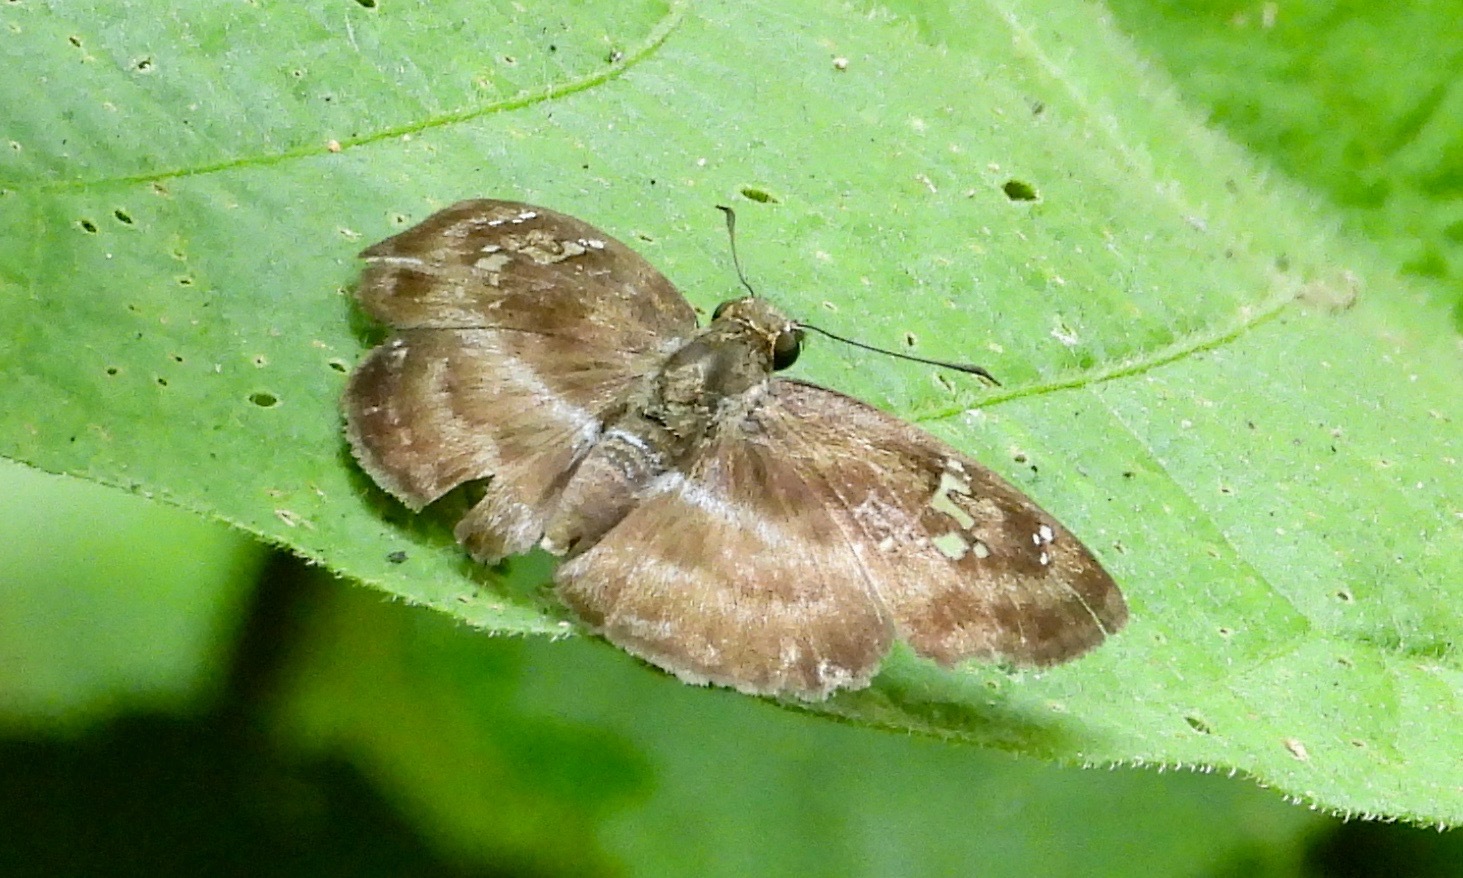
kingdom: Animalia
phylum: Arthropoda
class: Insecta
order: Lepidoptera
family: Hesperiidae
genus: Quadrus
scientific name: Quadrus cerialis
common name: Common blue-skipper
